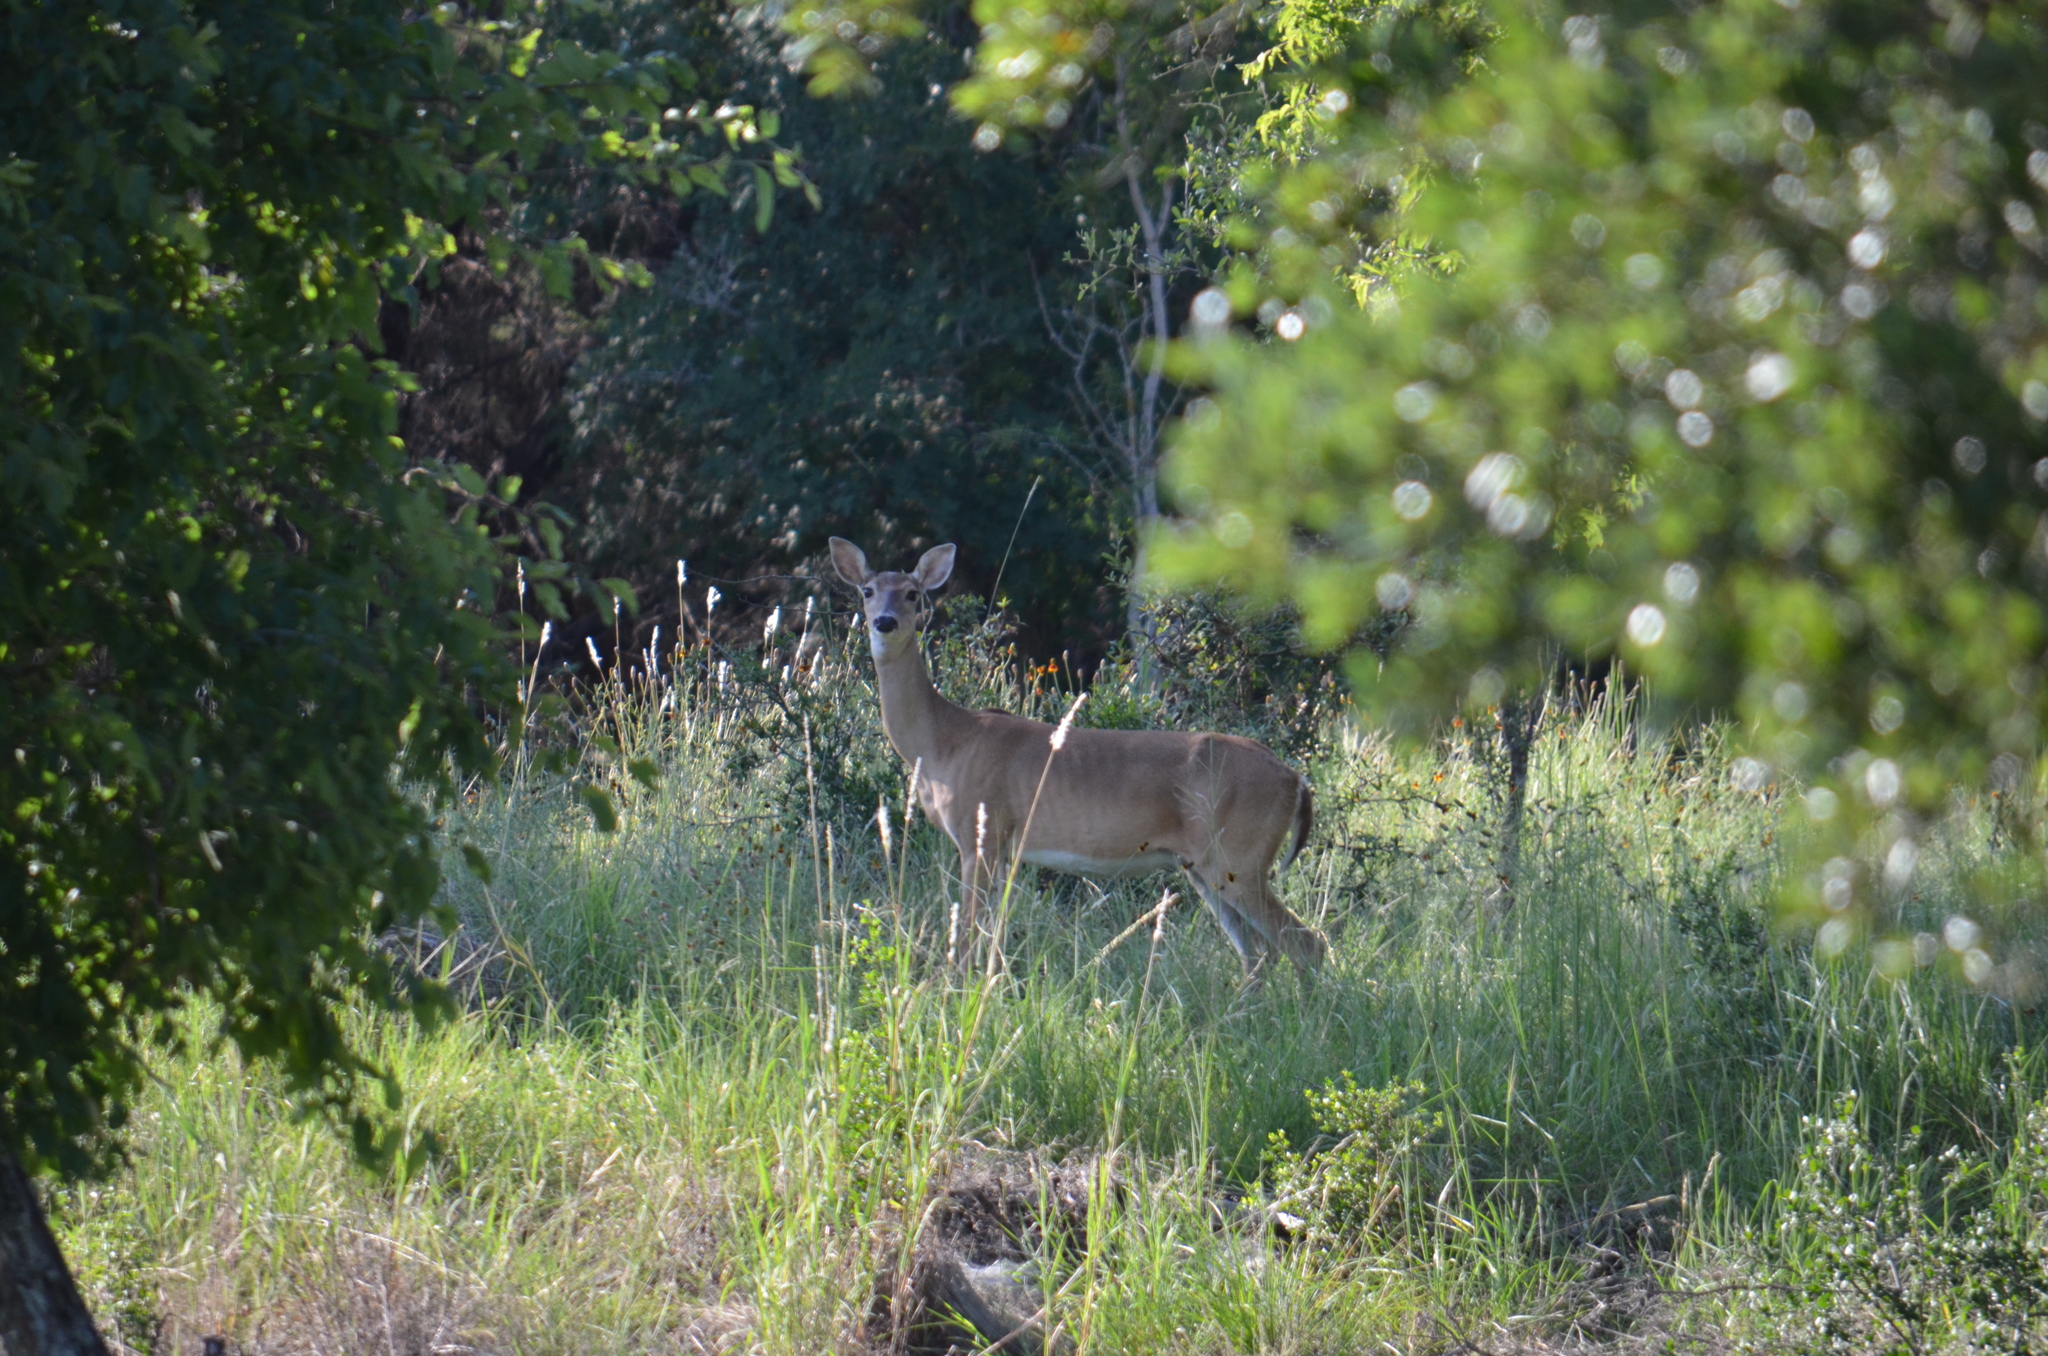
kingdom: Animalia
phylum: Chordata
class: Mammalia
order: Artiodactyla
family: Cervidae
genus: Odocoileus
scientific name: Odocoileus virginianus
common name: White-tailed deer
